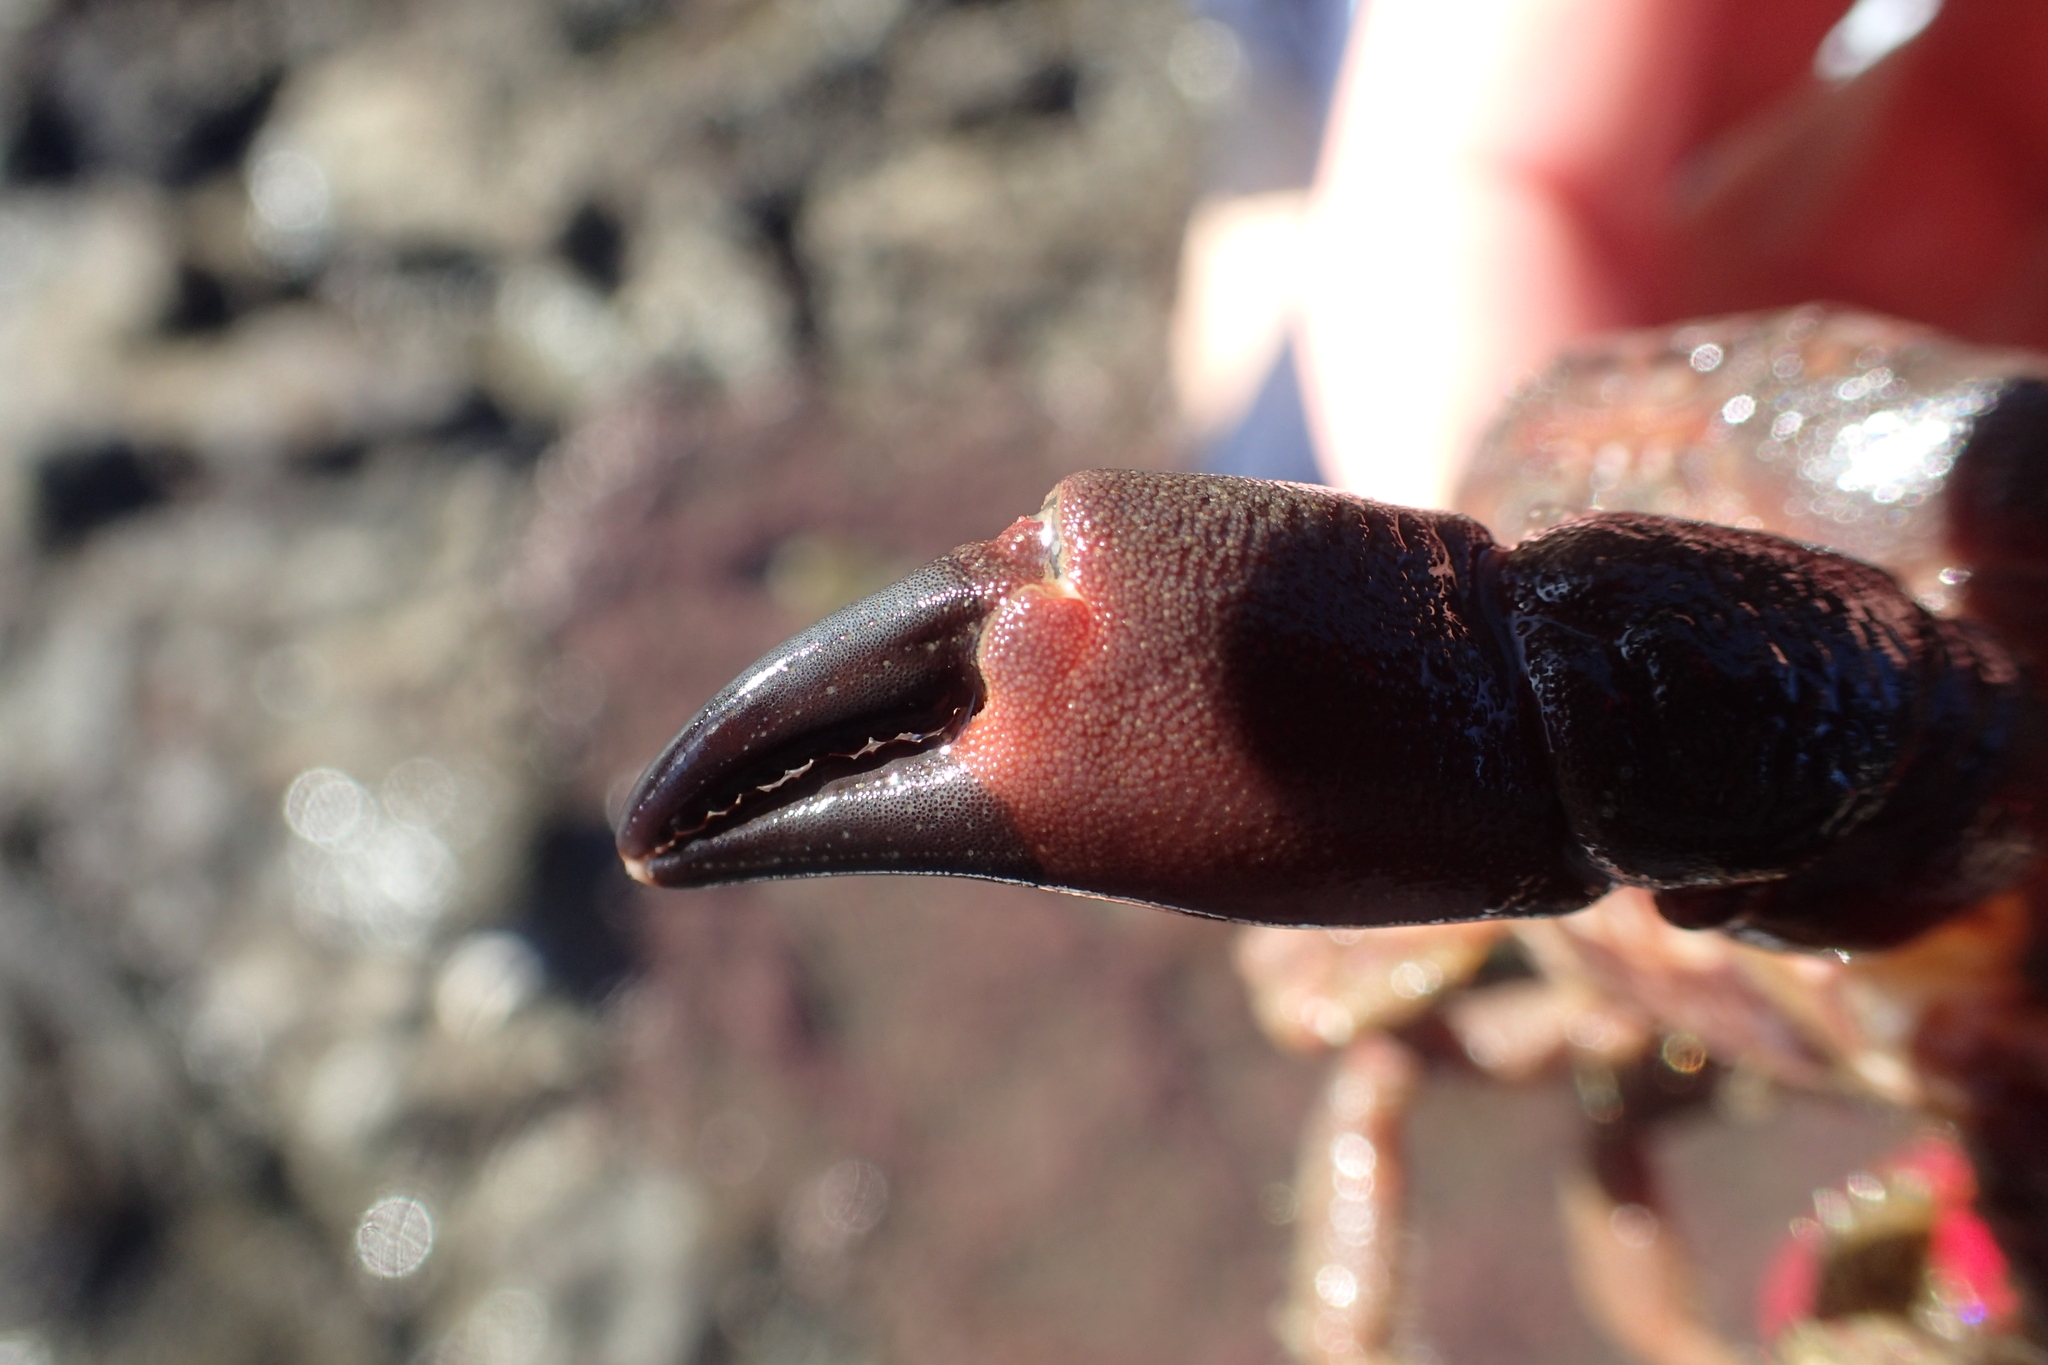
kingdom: Animalia
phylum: Arthropoda
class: Malacostraca
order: Decapoda
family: Oziidae
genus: Ozius
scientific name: Ozius deplanatus
